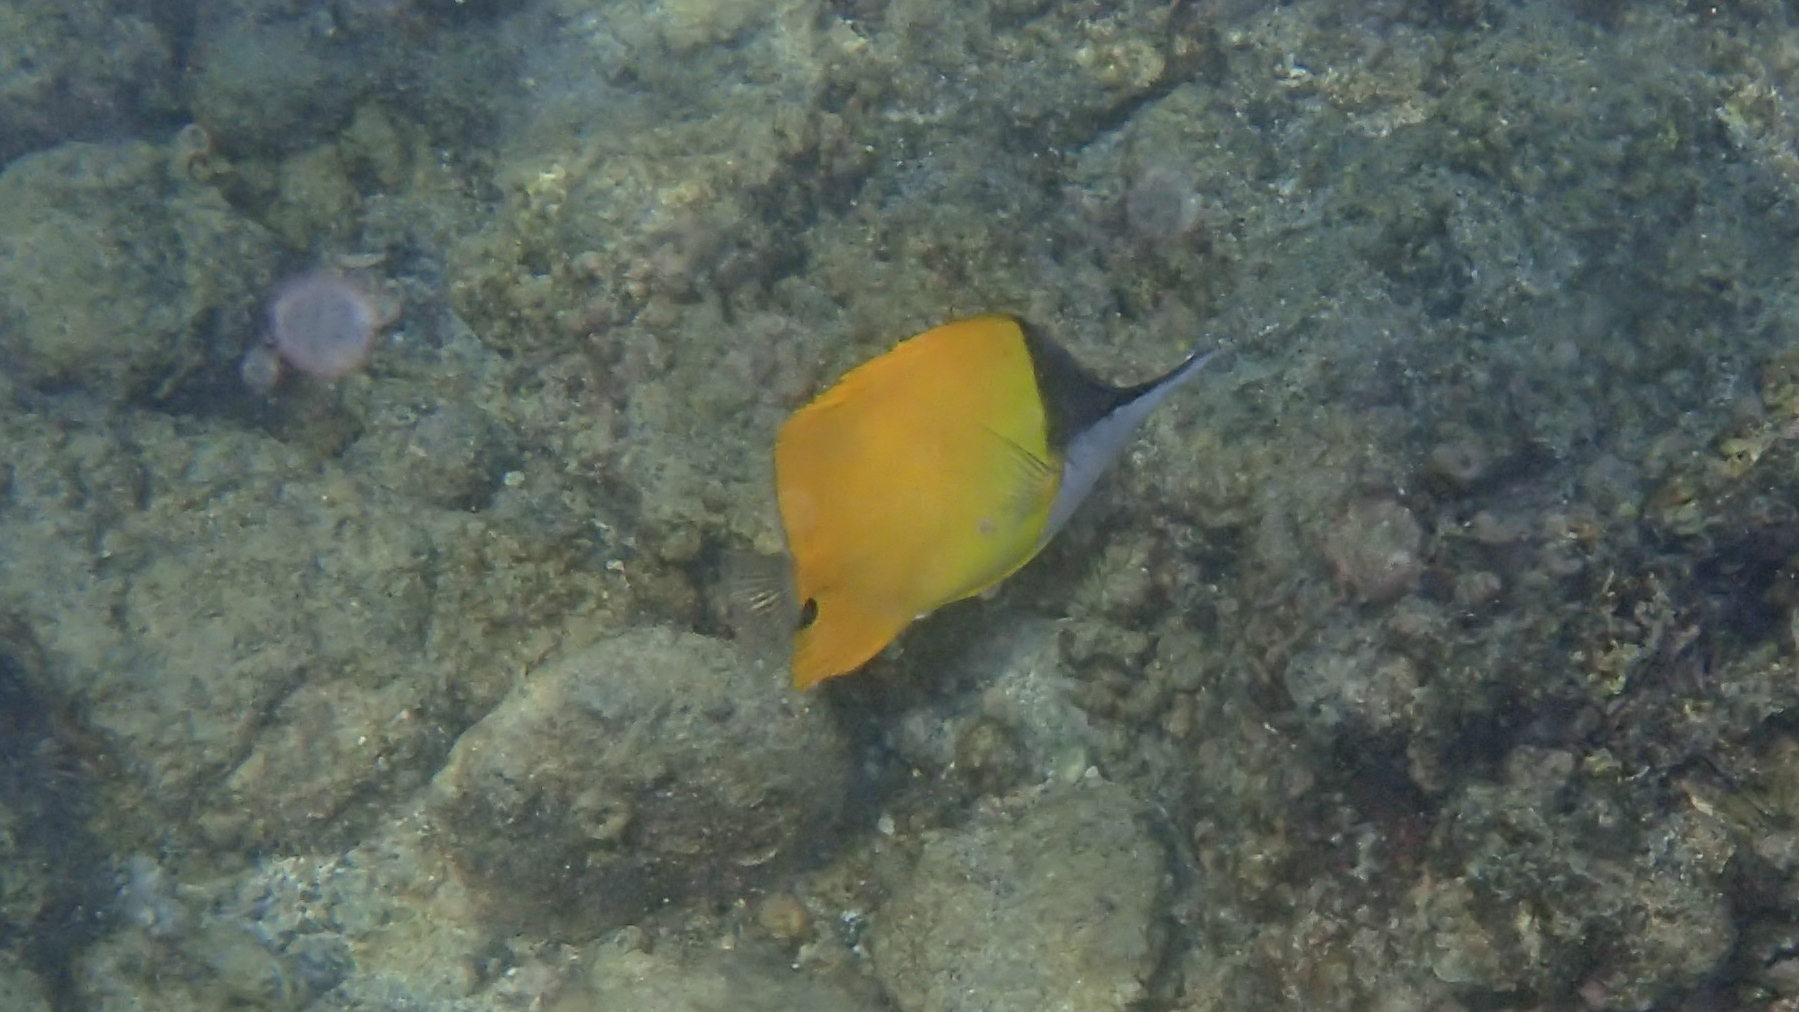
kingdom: Animalia
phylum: Chordata
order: Perciformes
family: Chaetodontidae
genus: Forcipiger
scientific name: Forcipiger flavissimus
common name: Forcepsfish
